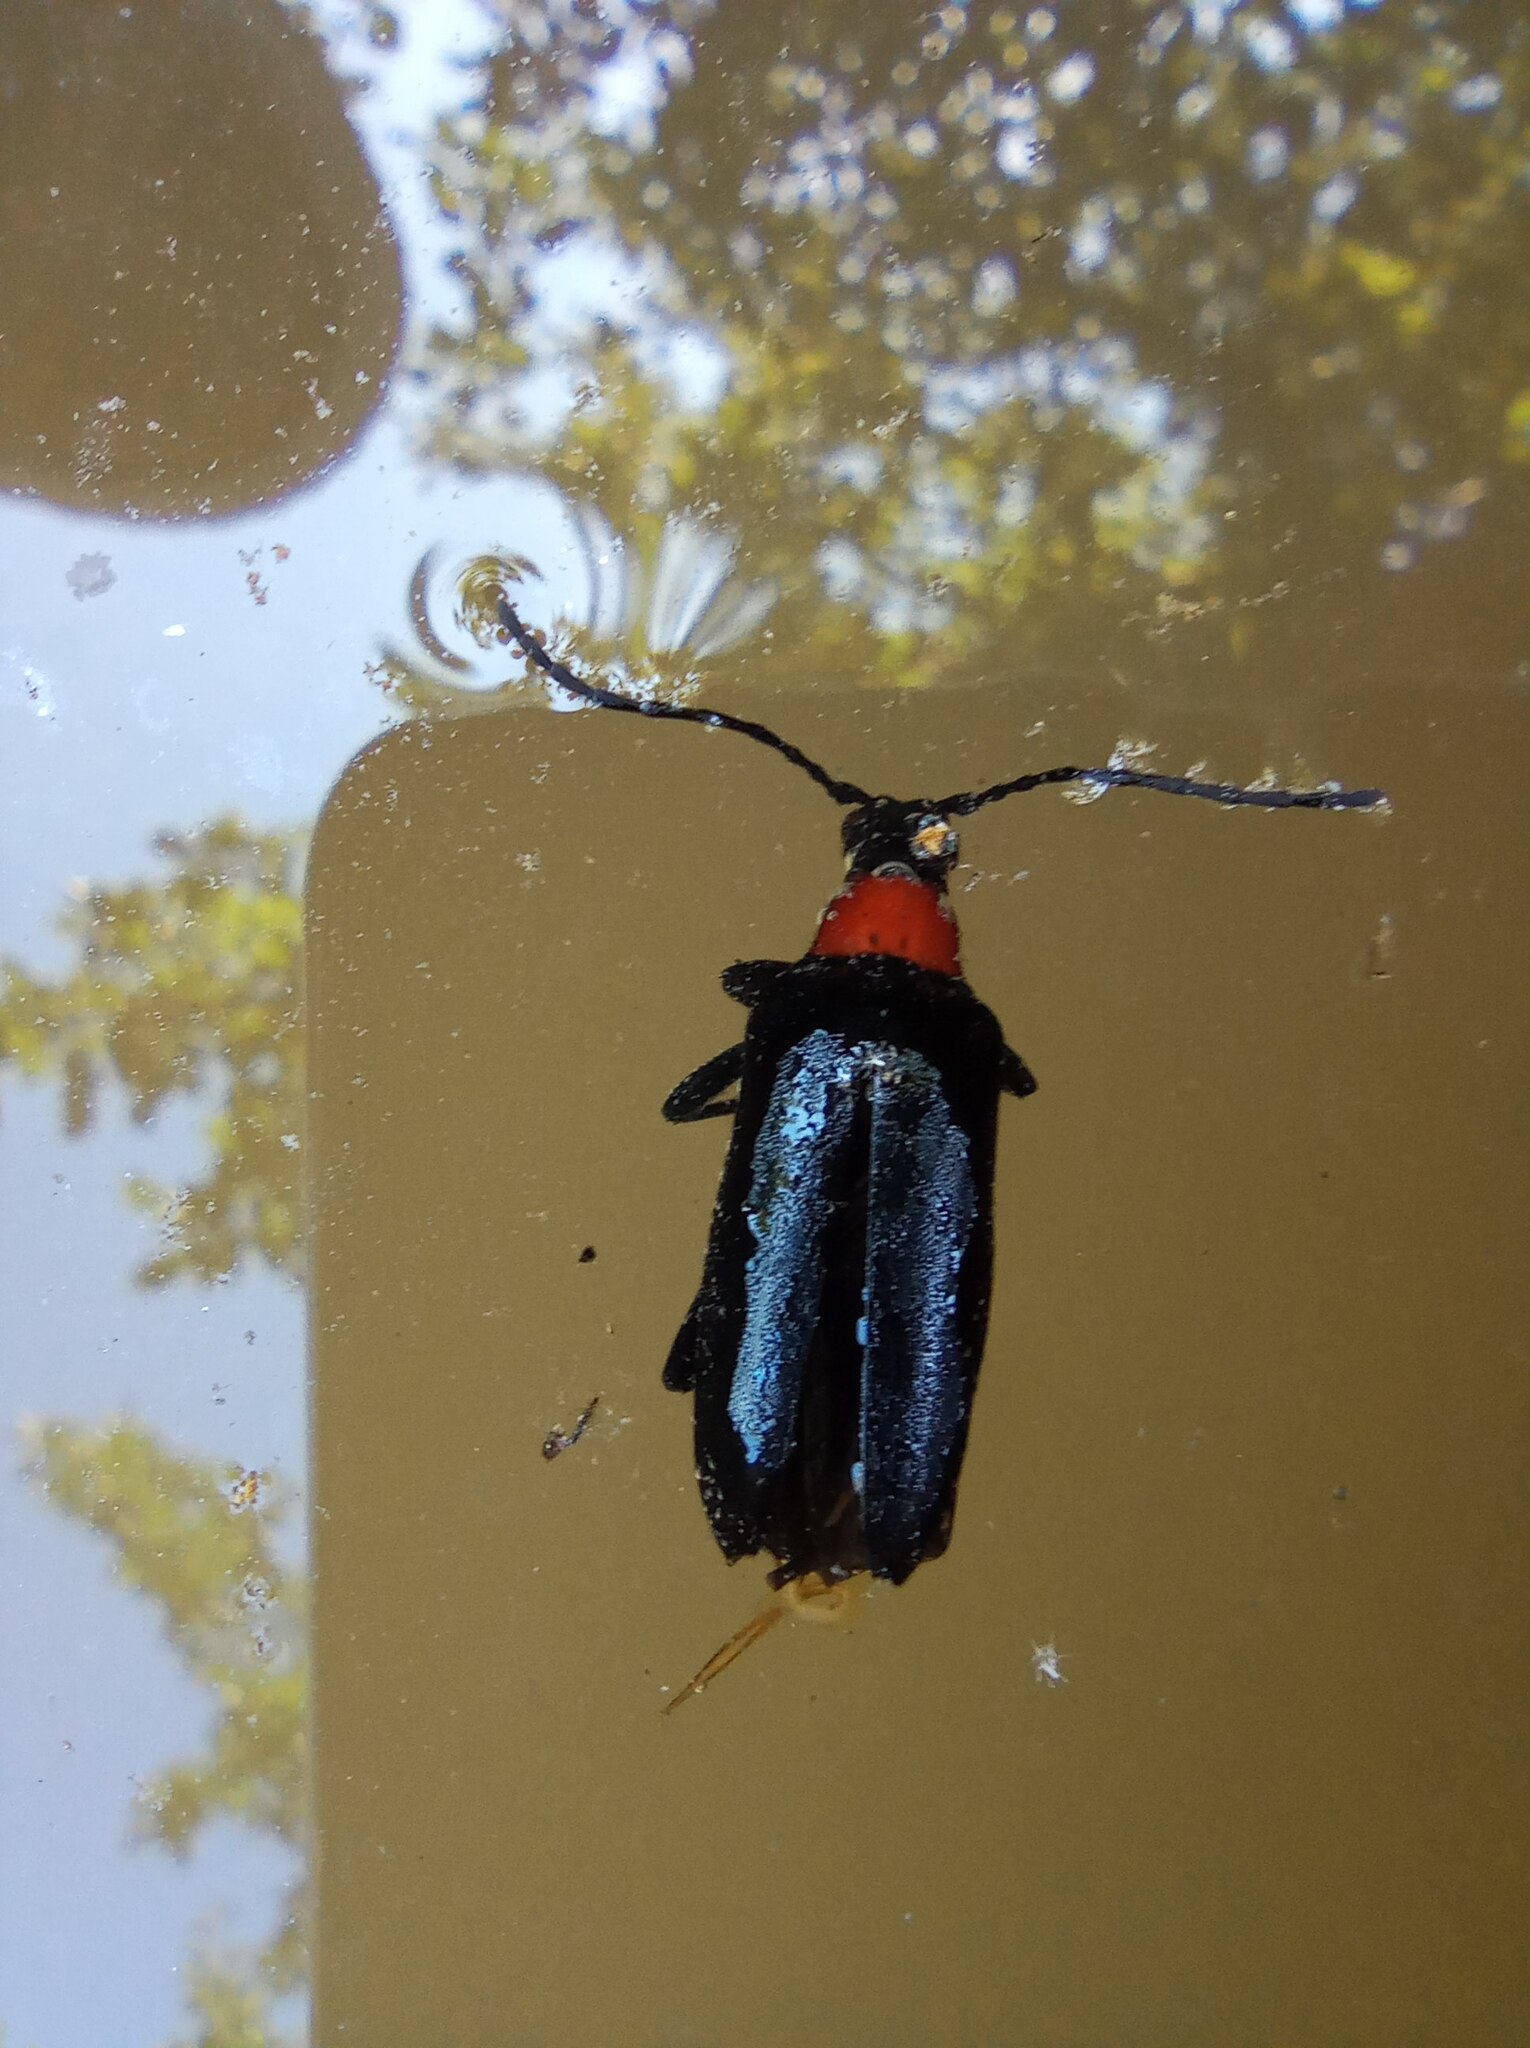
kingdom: Animalia
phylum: Arthropoda
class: Insecta
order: Coleoptera
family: Cerambycidae
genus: Leptura
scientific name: Leptura thoracica
